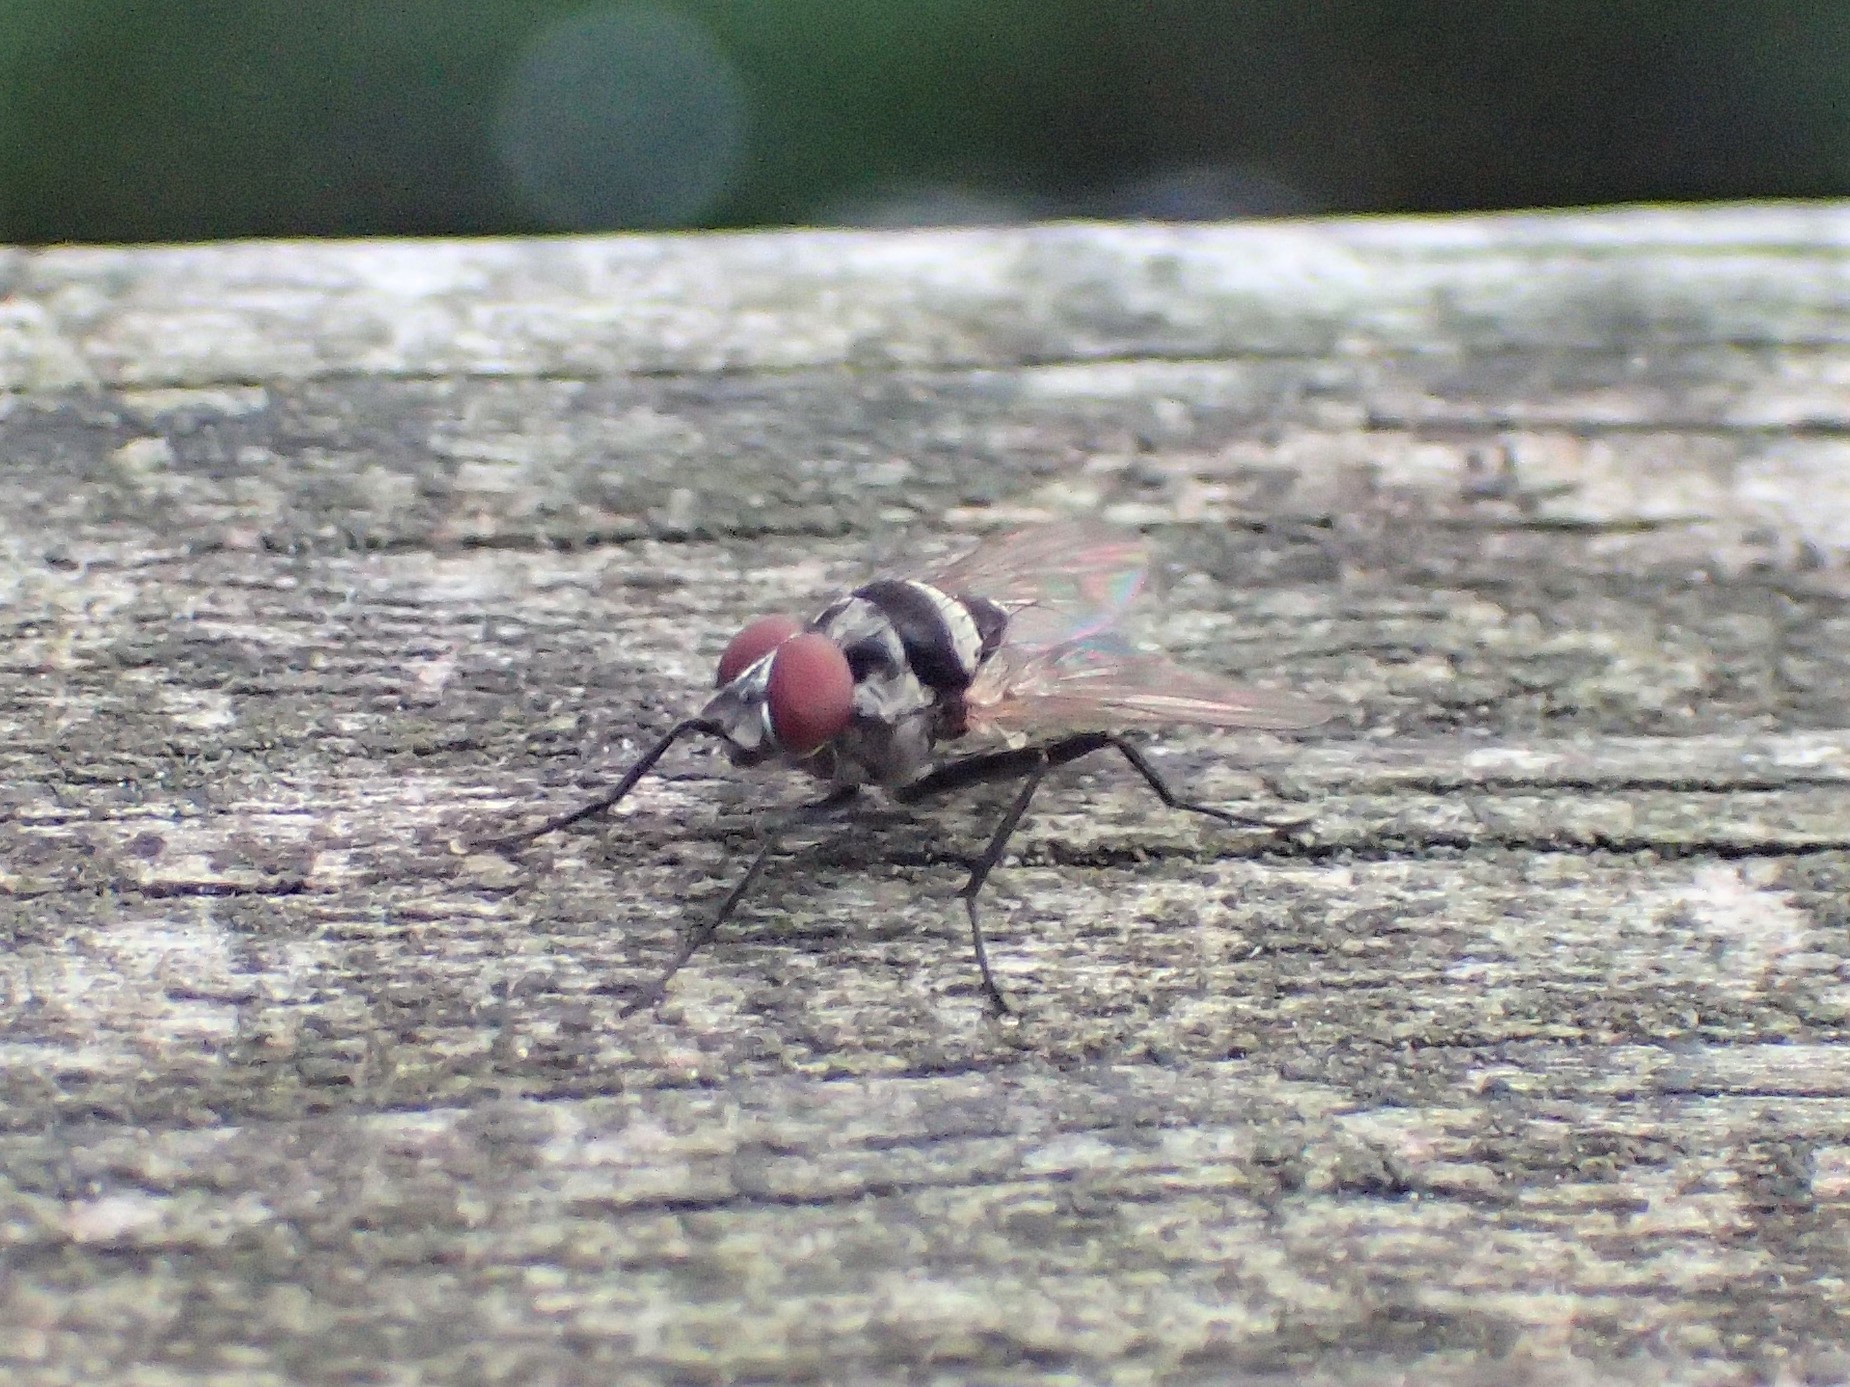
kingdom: Animalia
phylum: Arthropoda
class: Insecta
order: Diptera
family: Anthomyiidae
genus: Anthomyia
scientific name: Anthomyia oculifera
